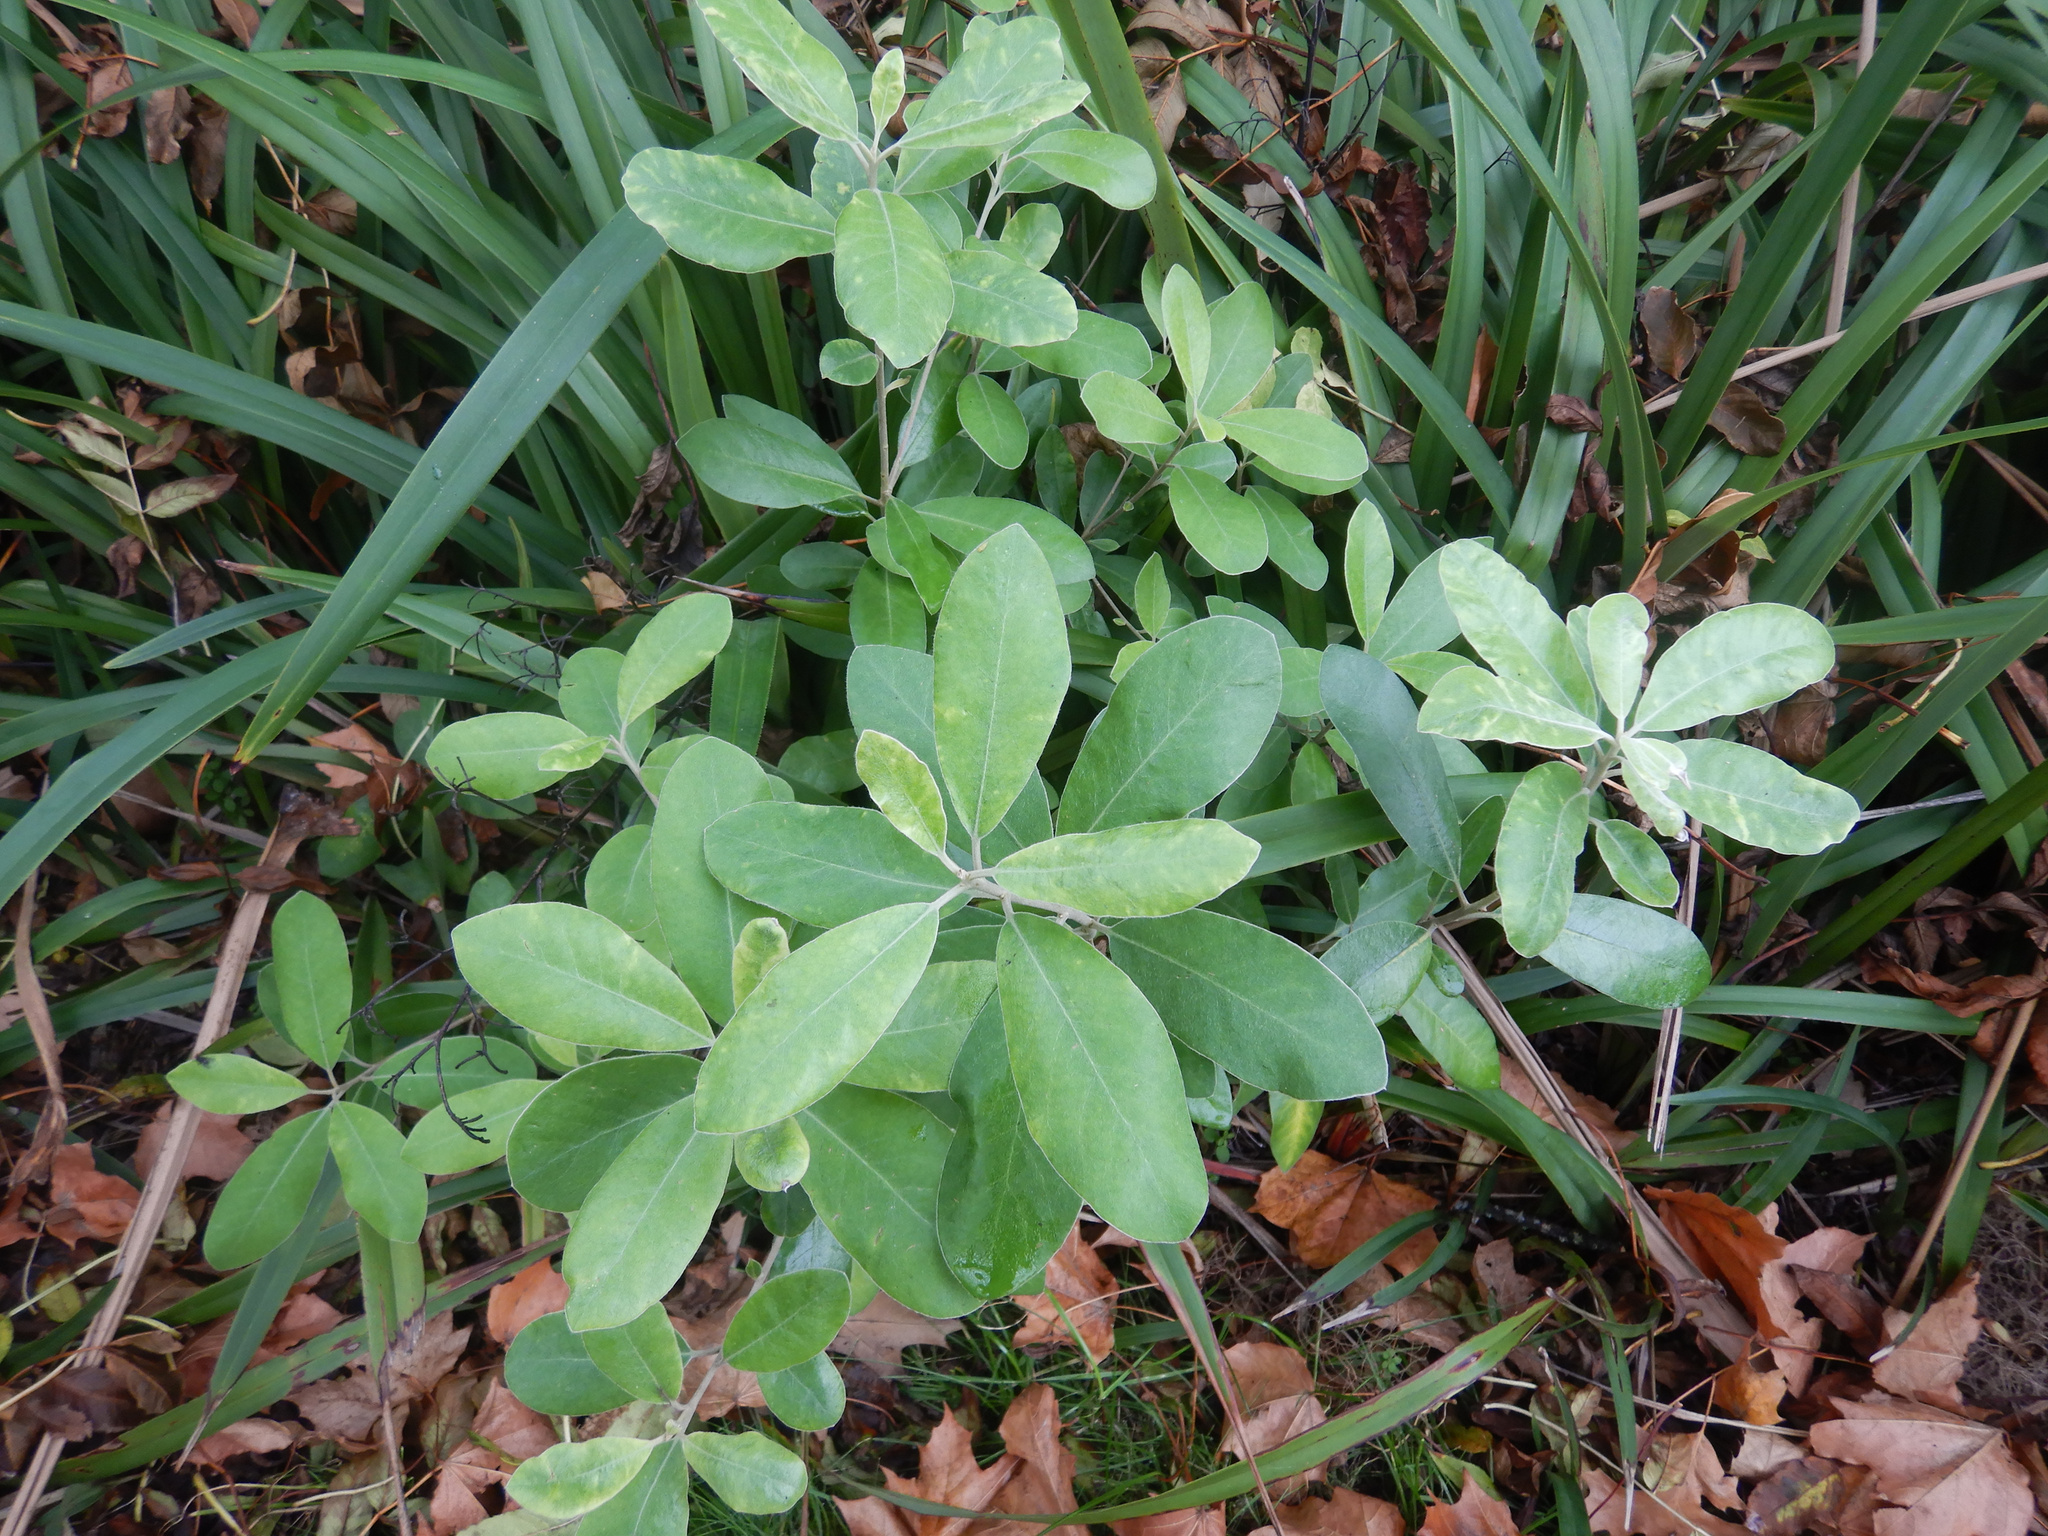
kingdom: Plantae
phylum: Tracheophyta
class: Magnoliopsida
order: Apiales
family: Pittosporaceae
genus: Pittosporum
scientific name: Pittosporum ralphii
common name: Ralph's desertwillow
